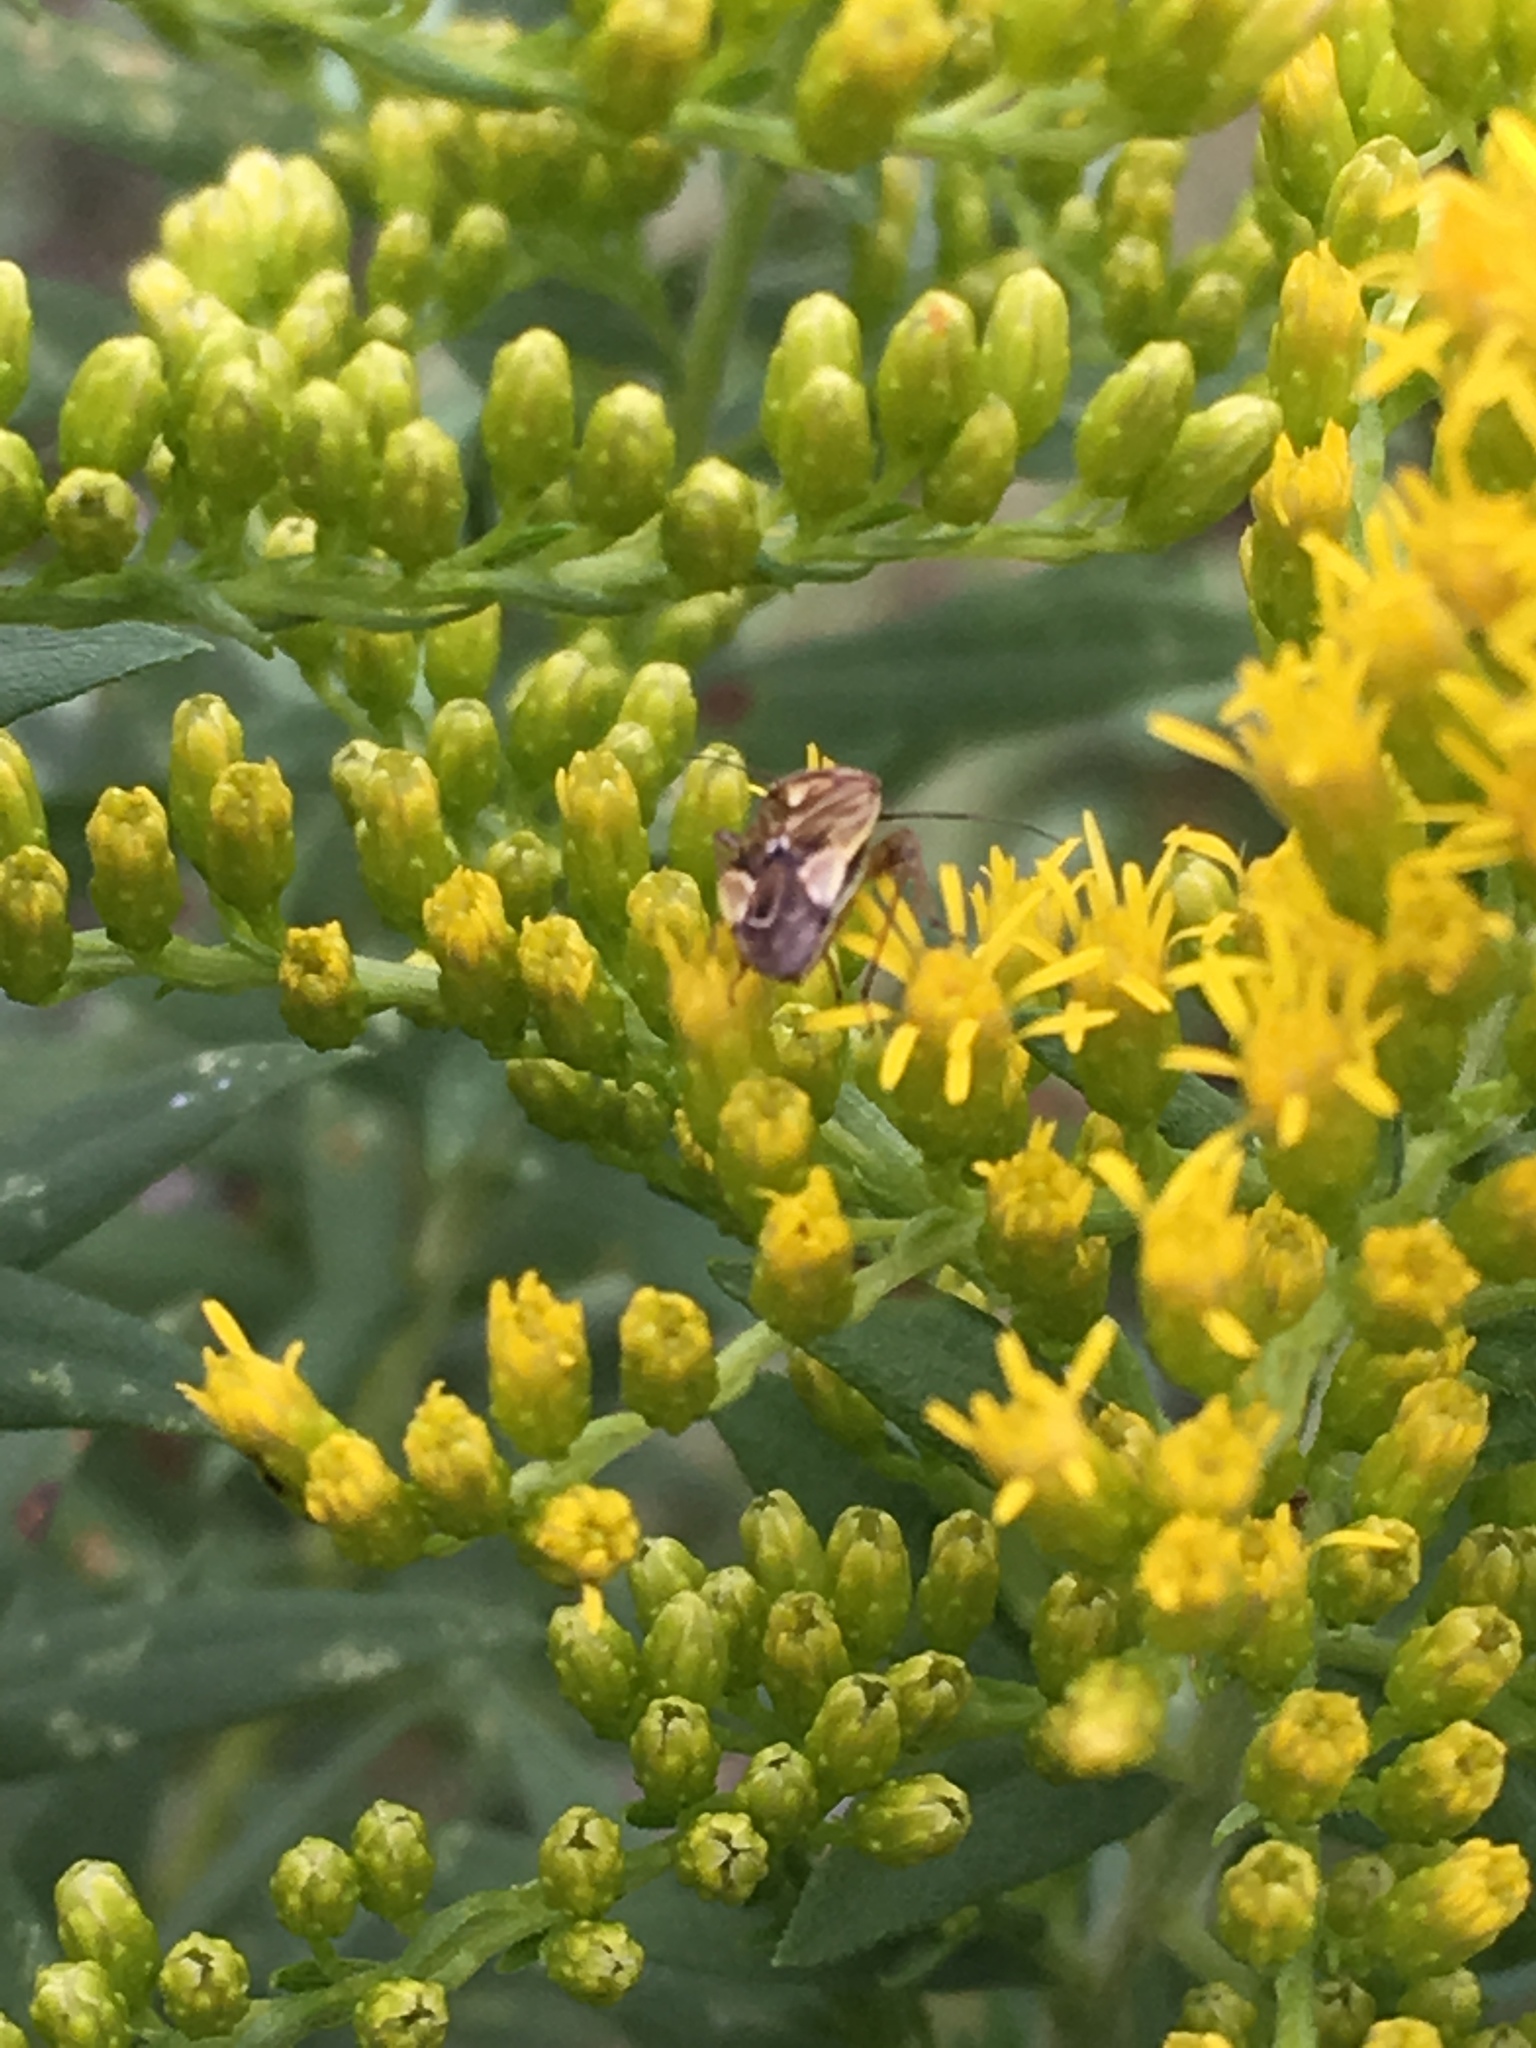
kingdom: Animalia
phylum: Arthropoda
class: Insecta
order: Hemiptera
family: Miridae
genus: Lygus
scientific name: Lygus lineolaris
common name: North american tarnished plant bug
